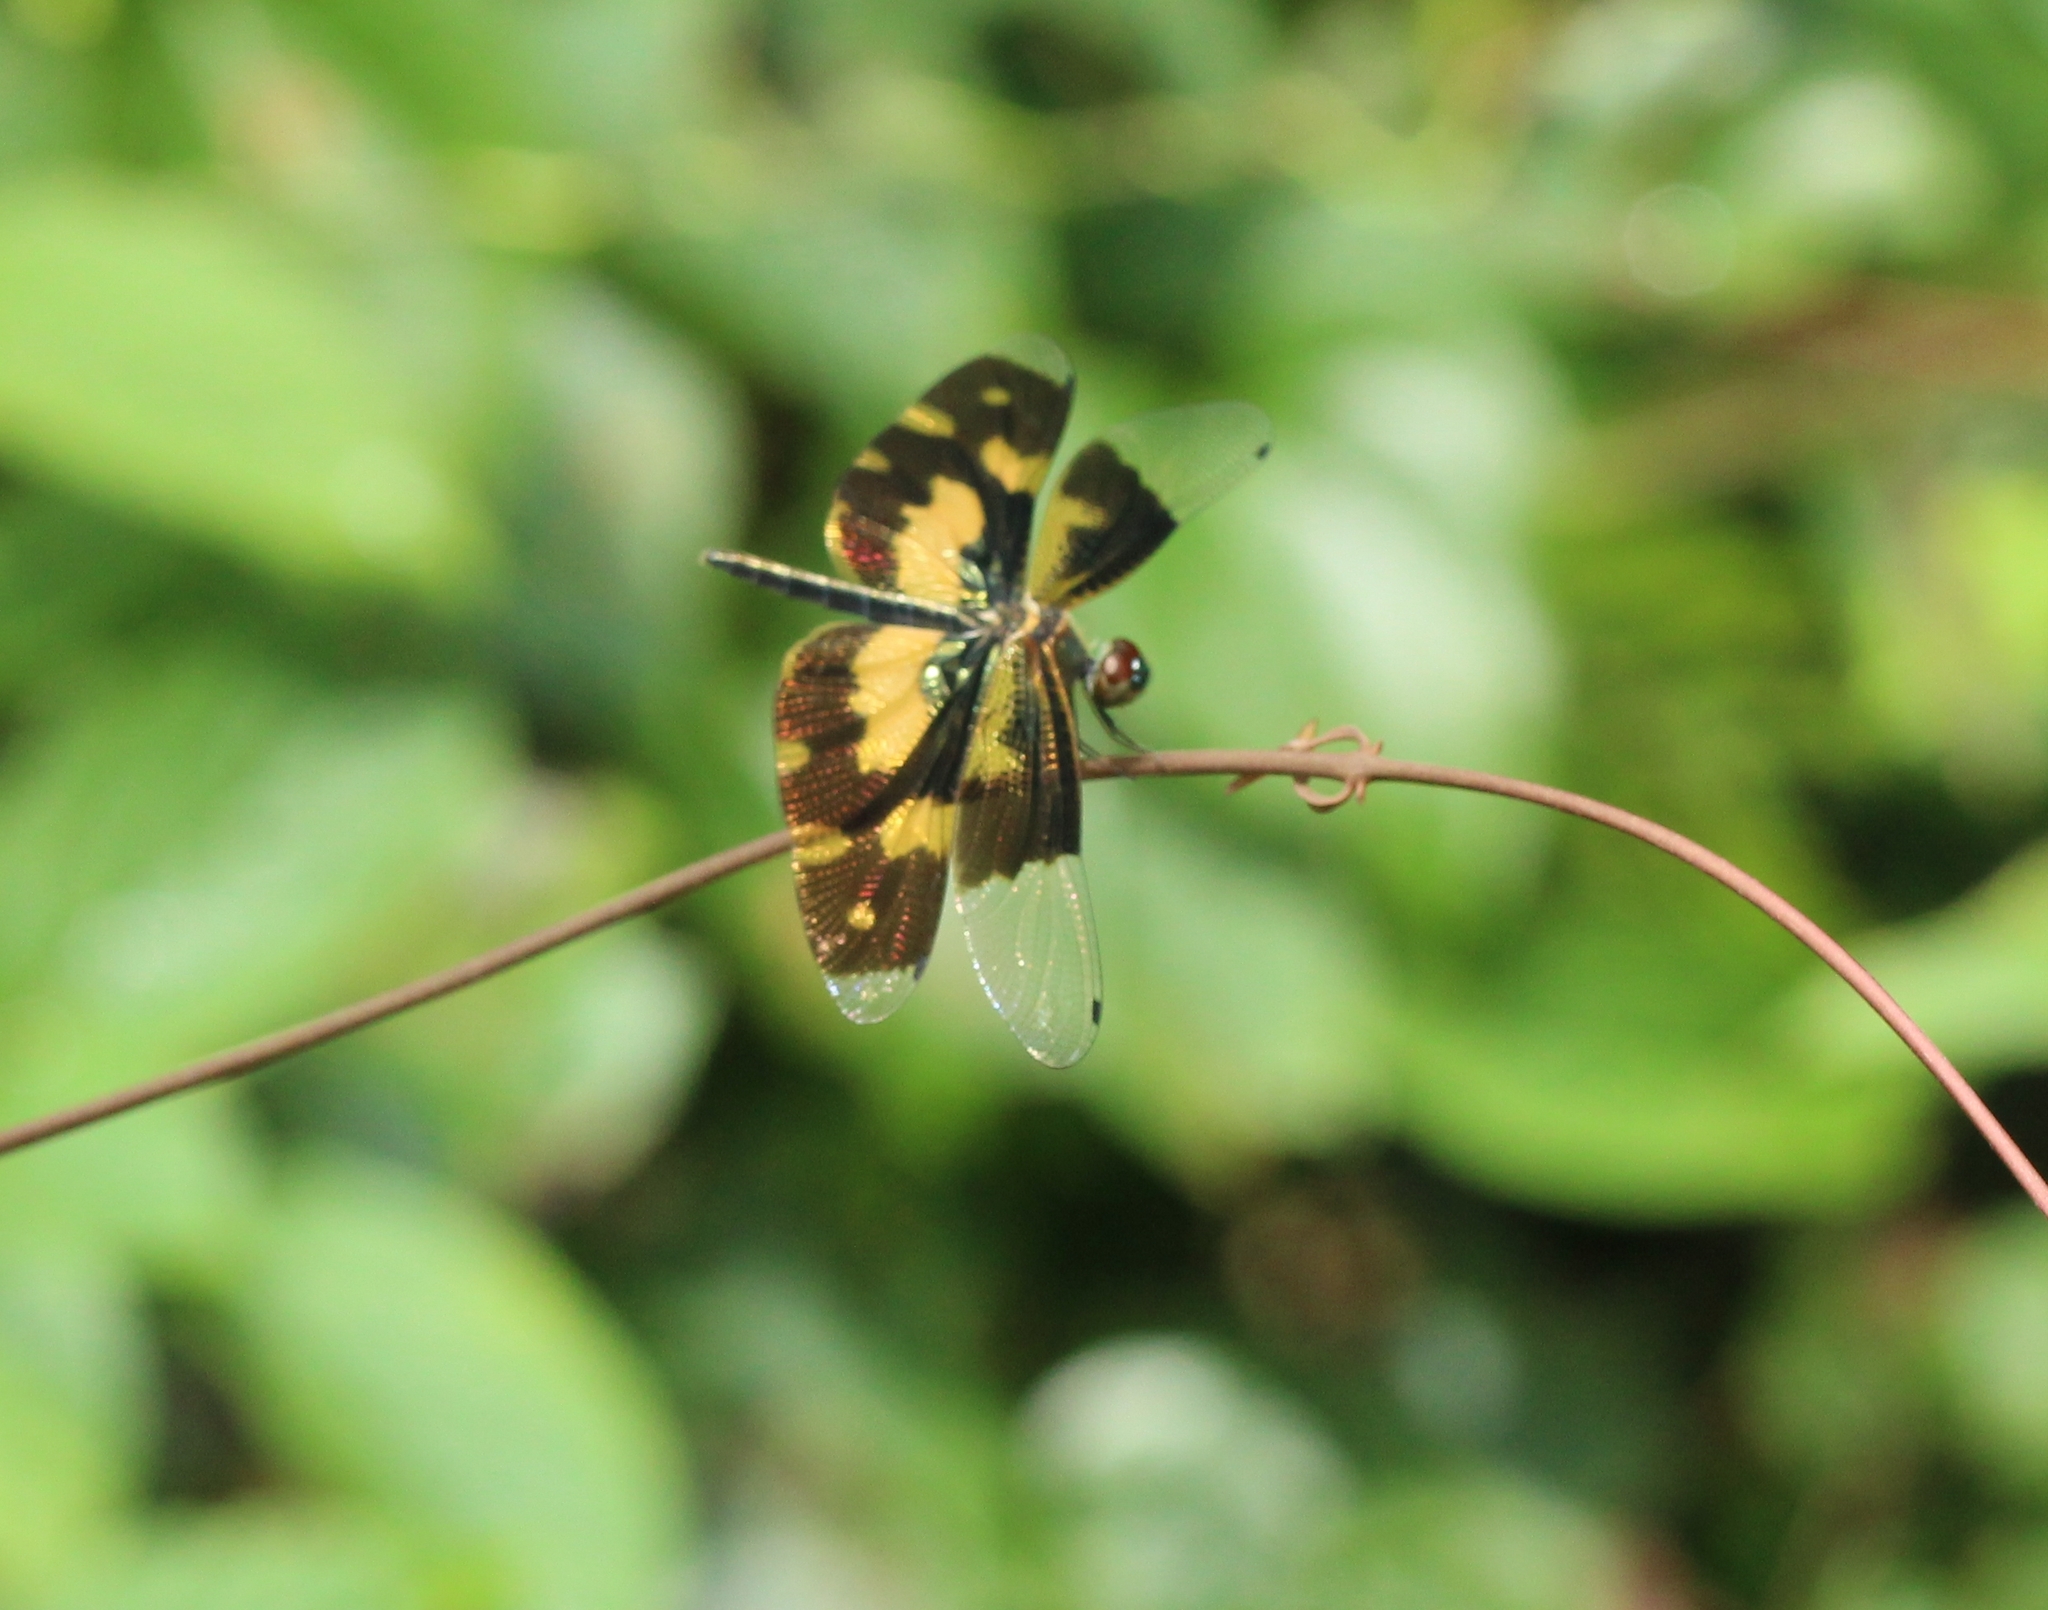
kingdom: Animalia
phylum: Arthropoda
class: Insecta
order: Odonata
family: Libellulidae
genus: Rhyothemis
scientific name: Rhyothemis variegata
